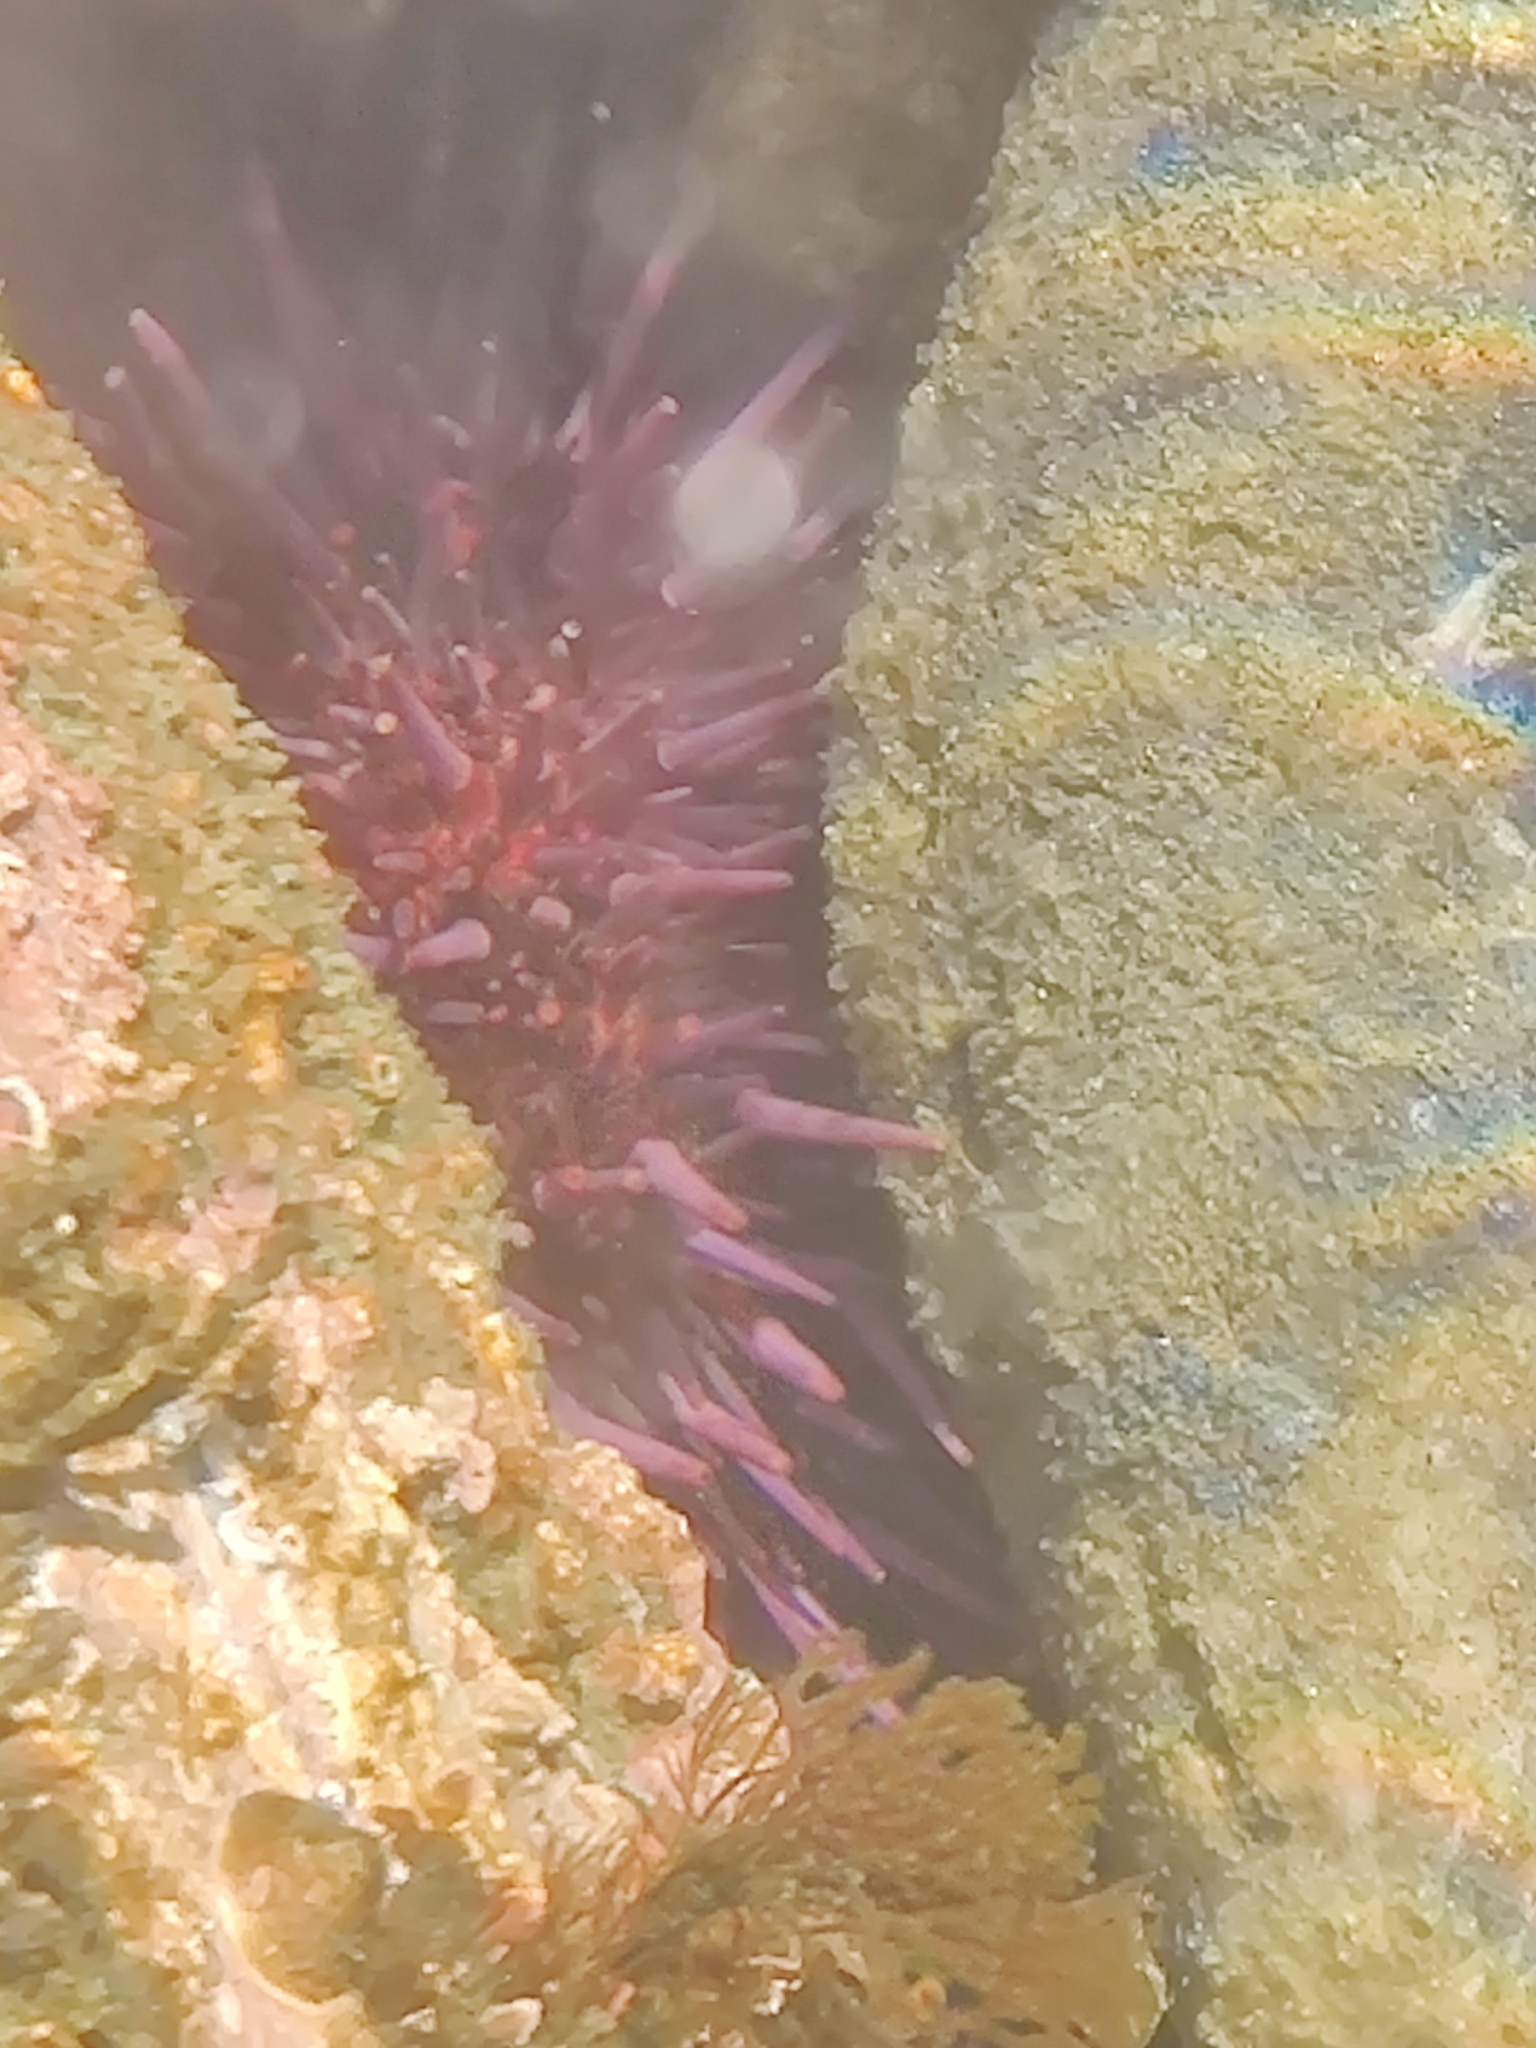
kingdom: Animalia
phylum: Echinodermata
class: Echinoidea
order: Camarodonta
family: Strongylocentrotidae
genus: Strongylocentrotus
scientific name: Strongylocentrotus purpuratus
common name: Purple sea urchin
